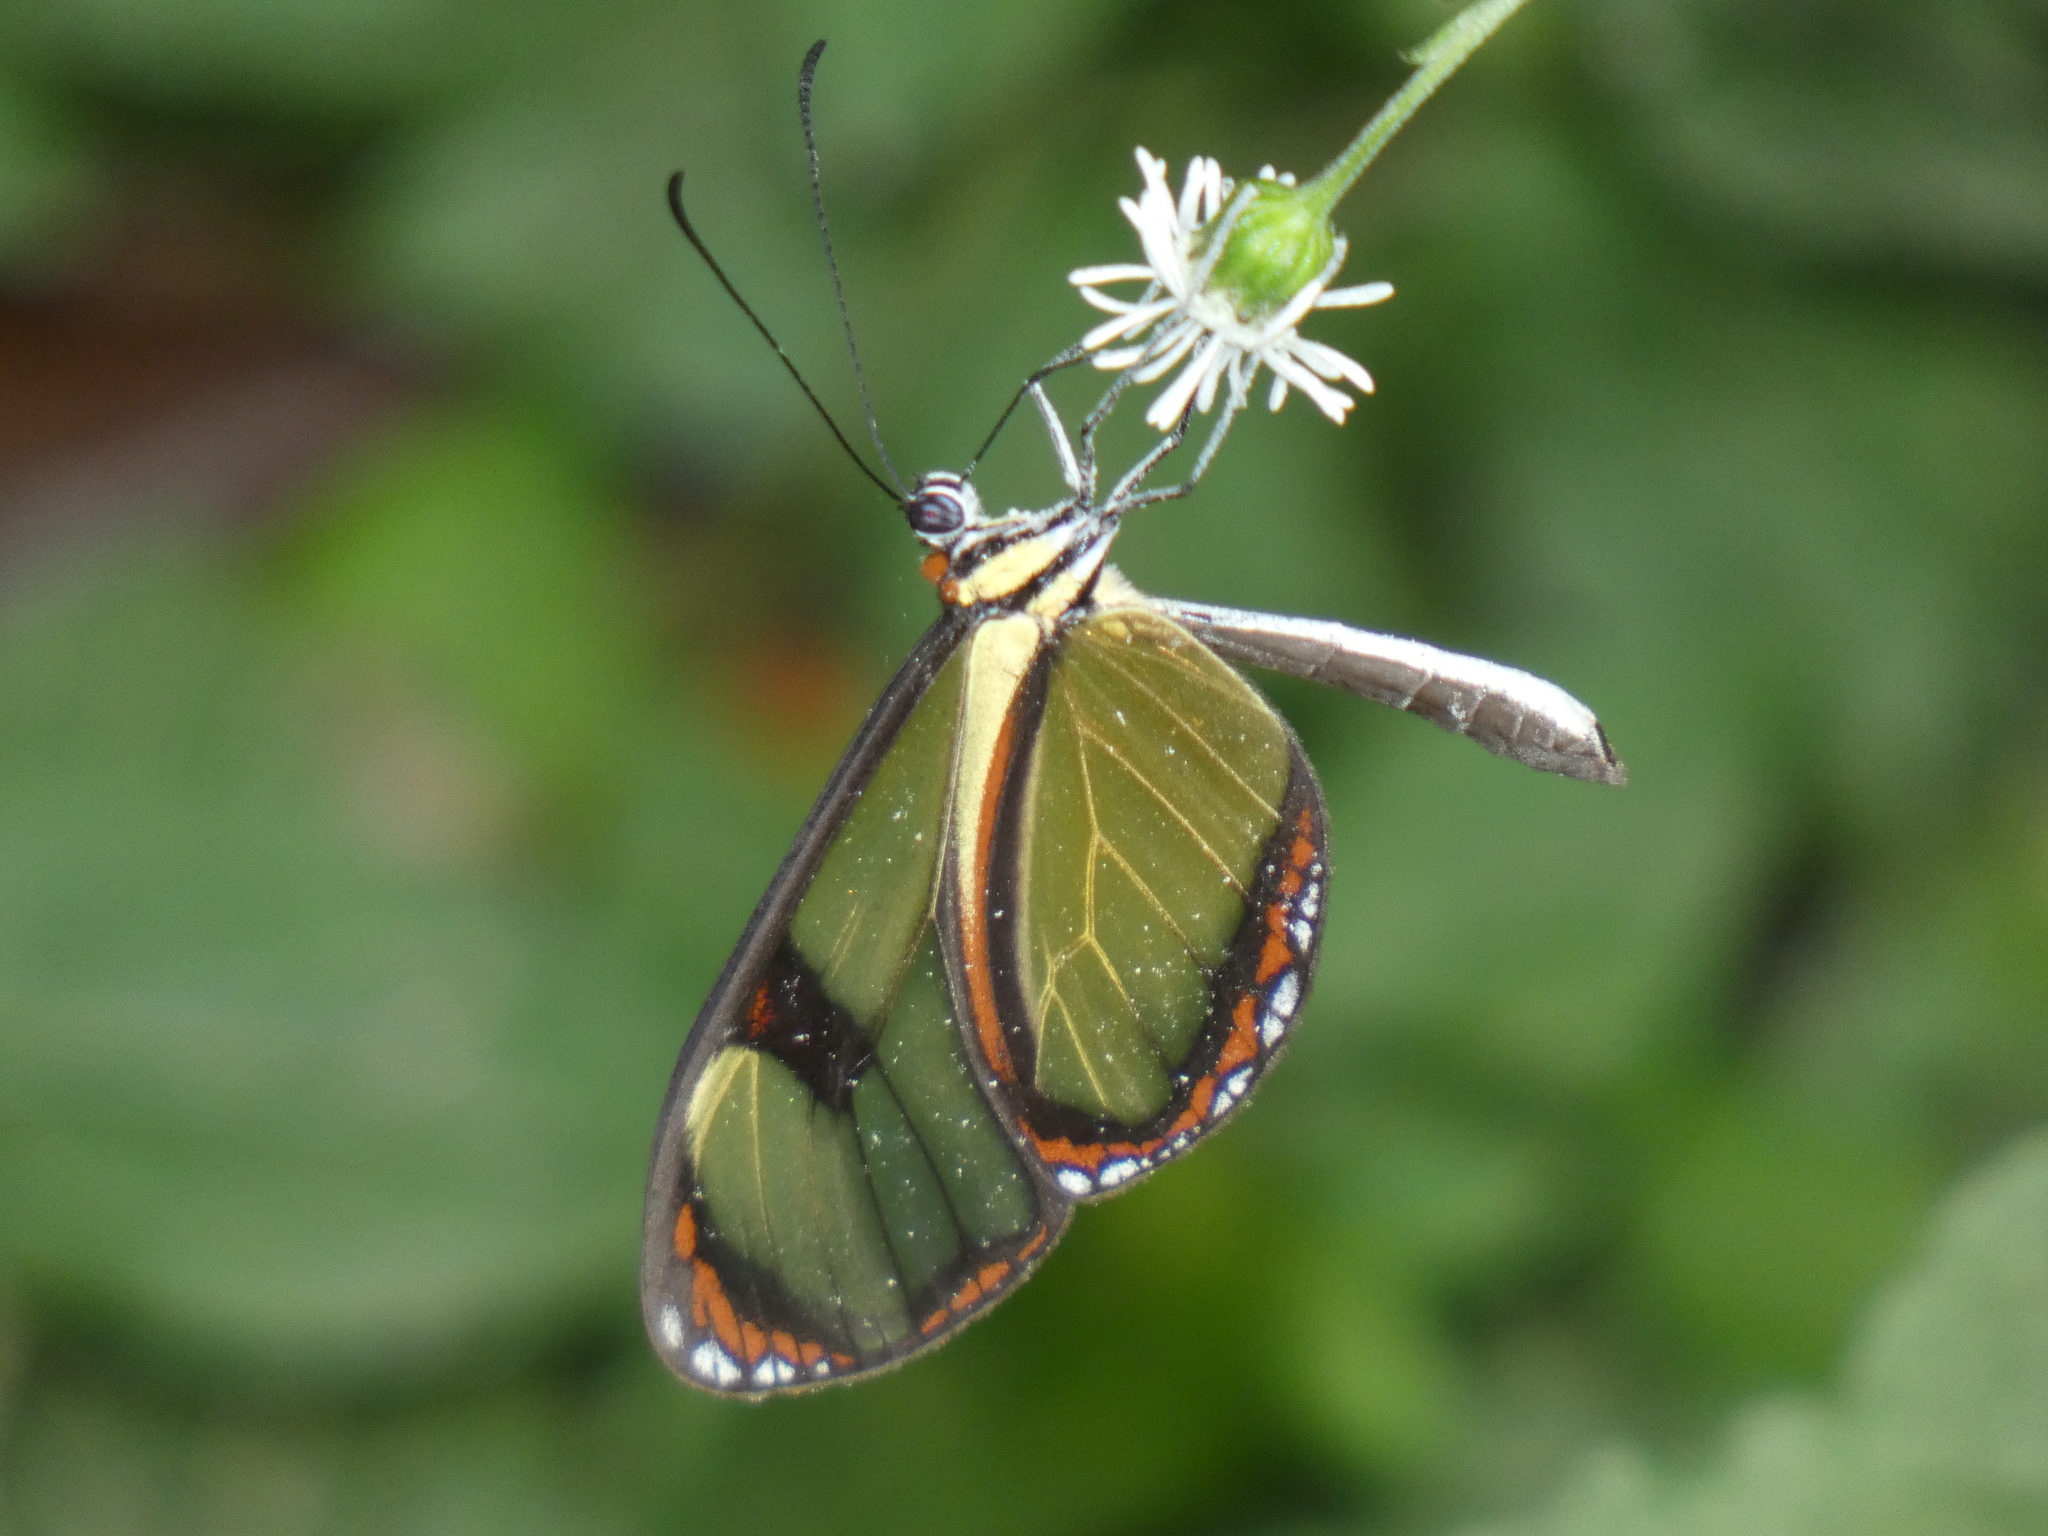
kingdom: Animalia
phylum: Arthropoda
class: Insecta
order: Lepidoptera
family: Nymphalidae
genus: Epityches
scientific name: Epityches eupompe
